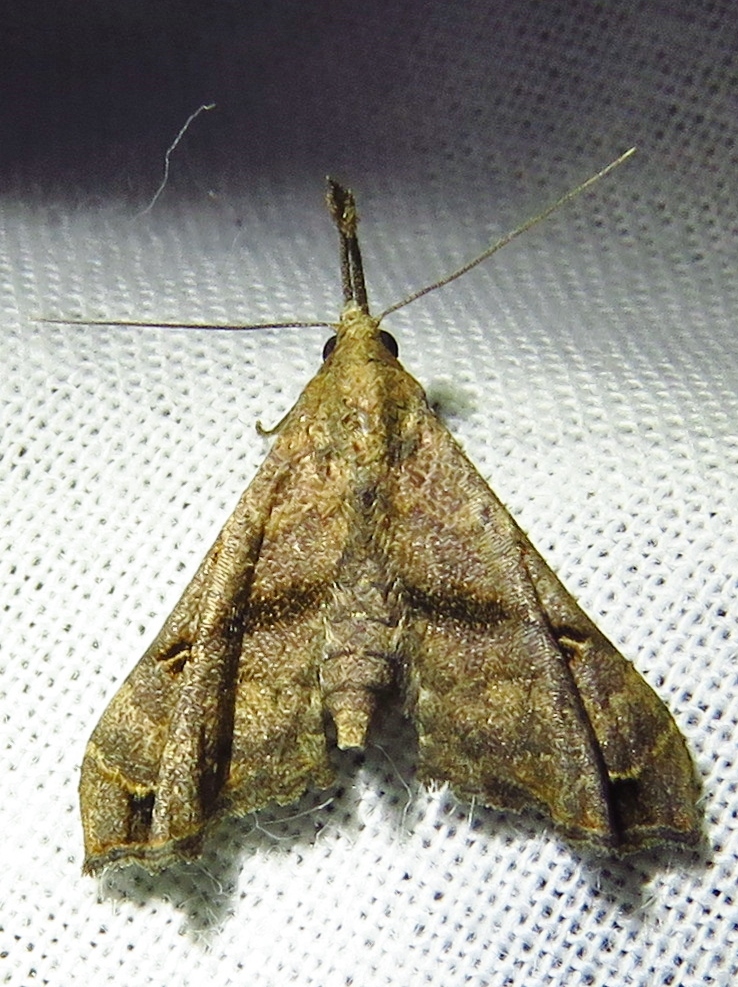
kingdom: Animalia
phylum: Arthropoda
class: Insecta
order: Lepidoptera
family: Erebidae
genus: Palthis
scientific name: Palthis asopialis
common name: Faint-spotted palthis moth
